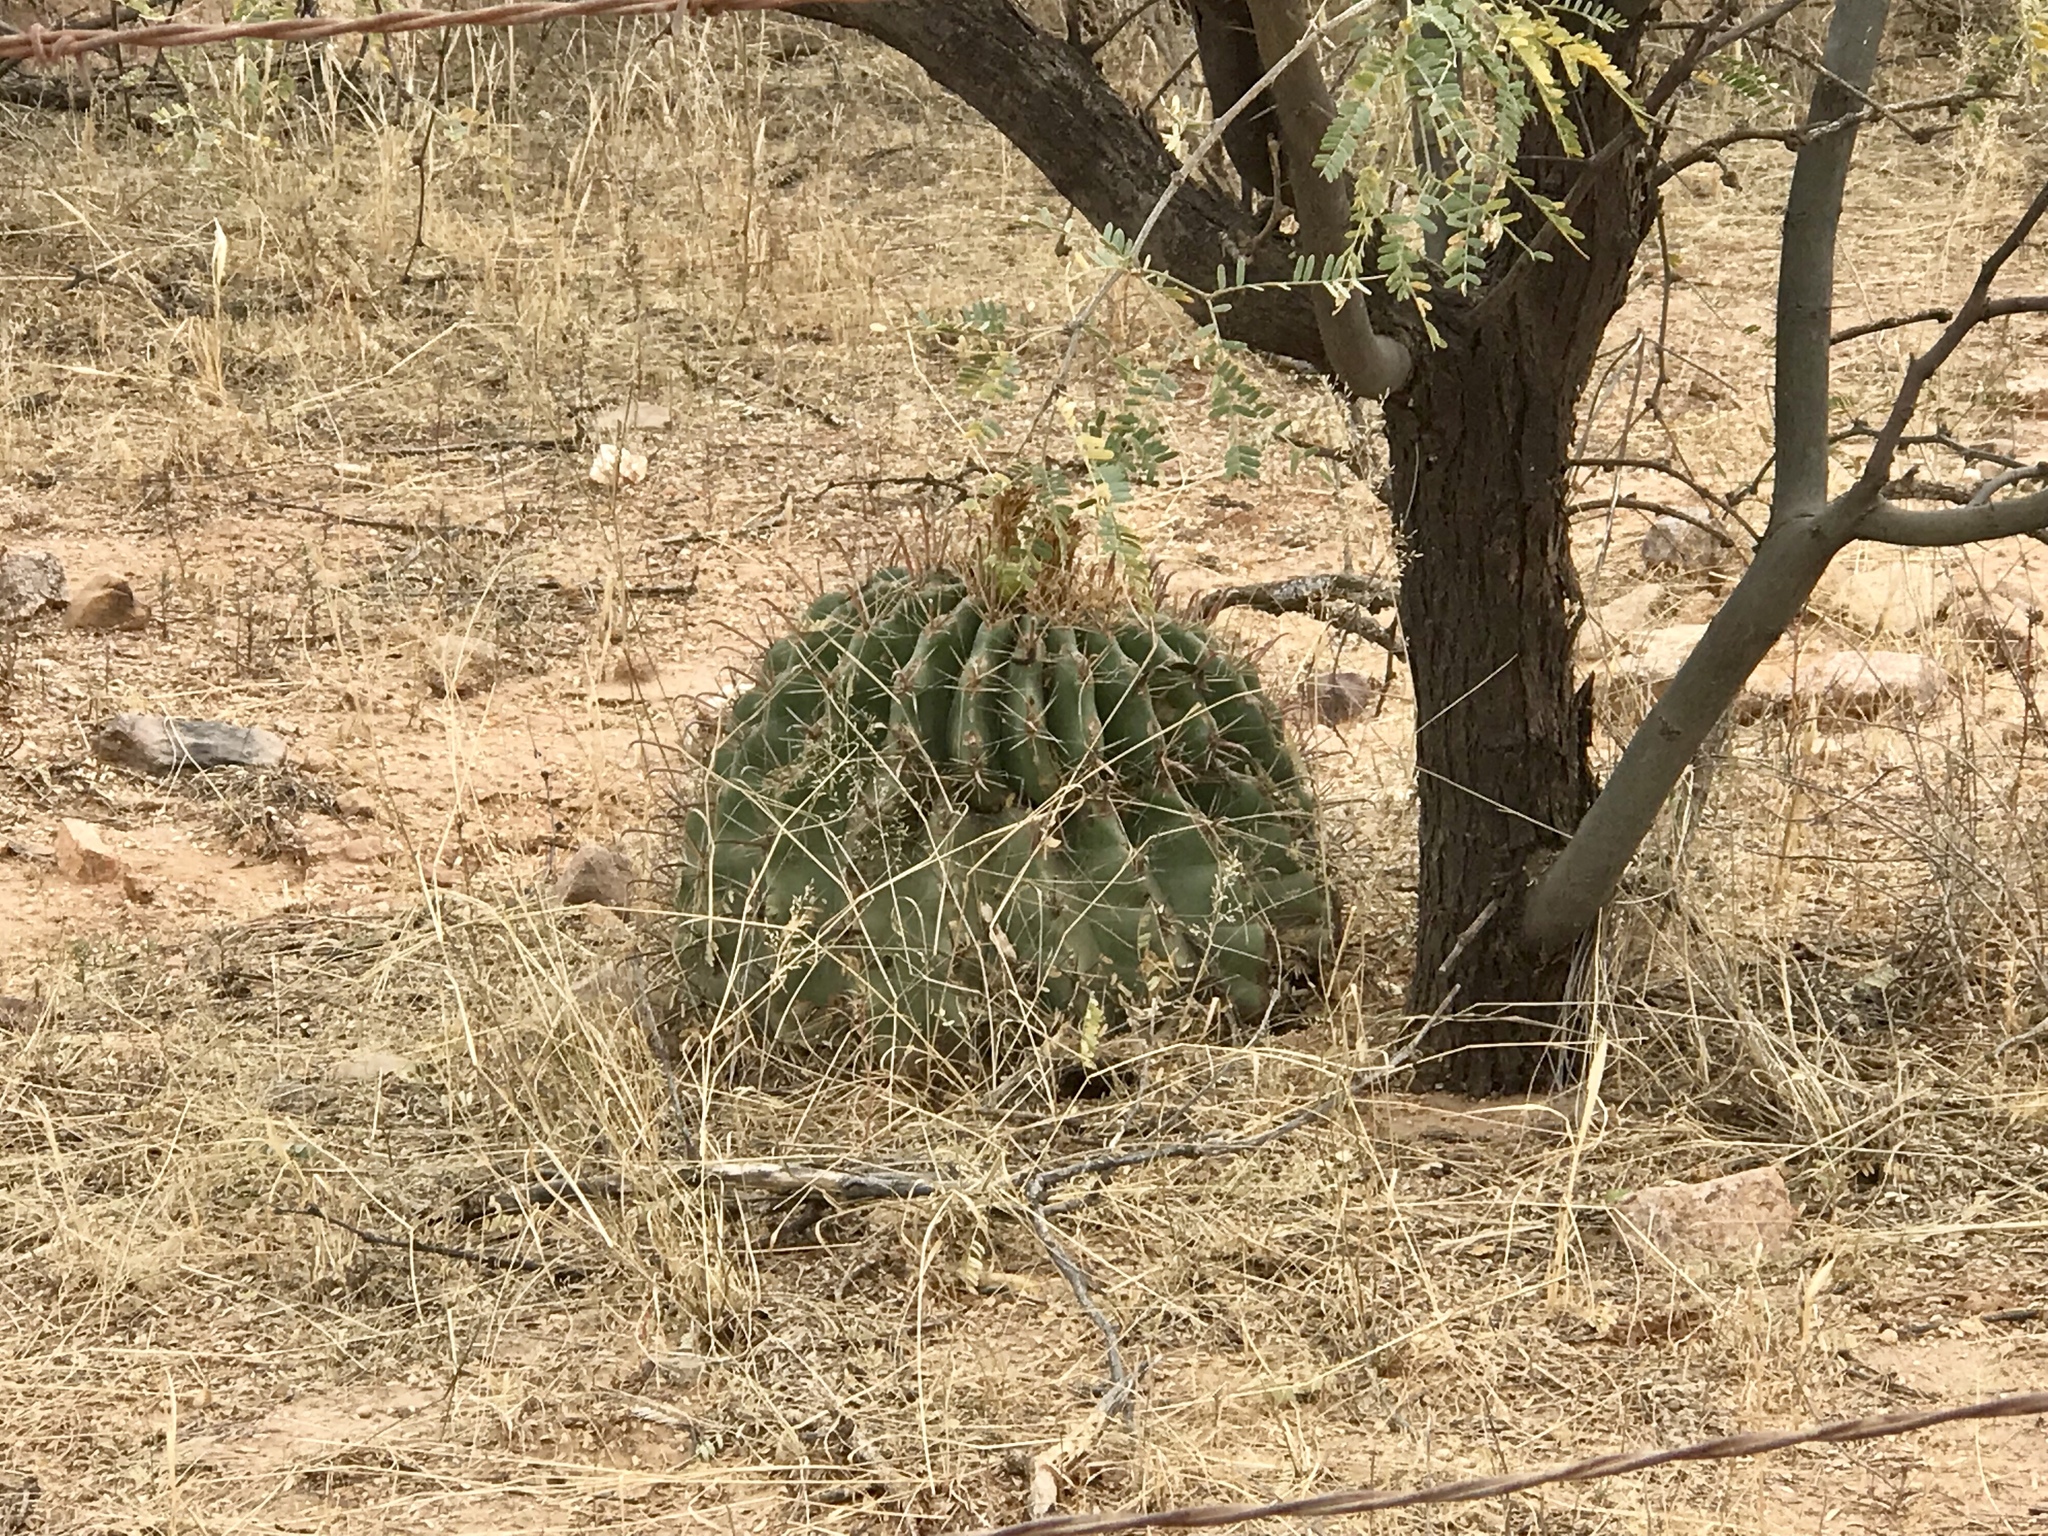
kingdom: Plantae
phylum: Tracheophyta
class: Magnoliopsida
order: Caryophyllales
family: Cactaceae
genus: Ferocactus
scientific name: Ferocactus wislizeni
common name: Candy barrel cactus
